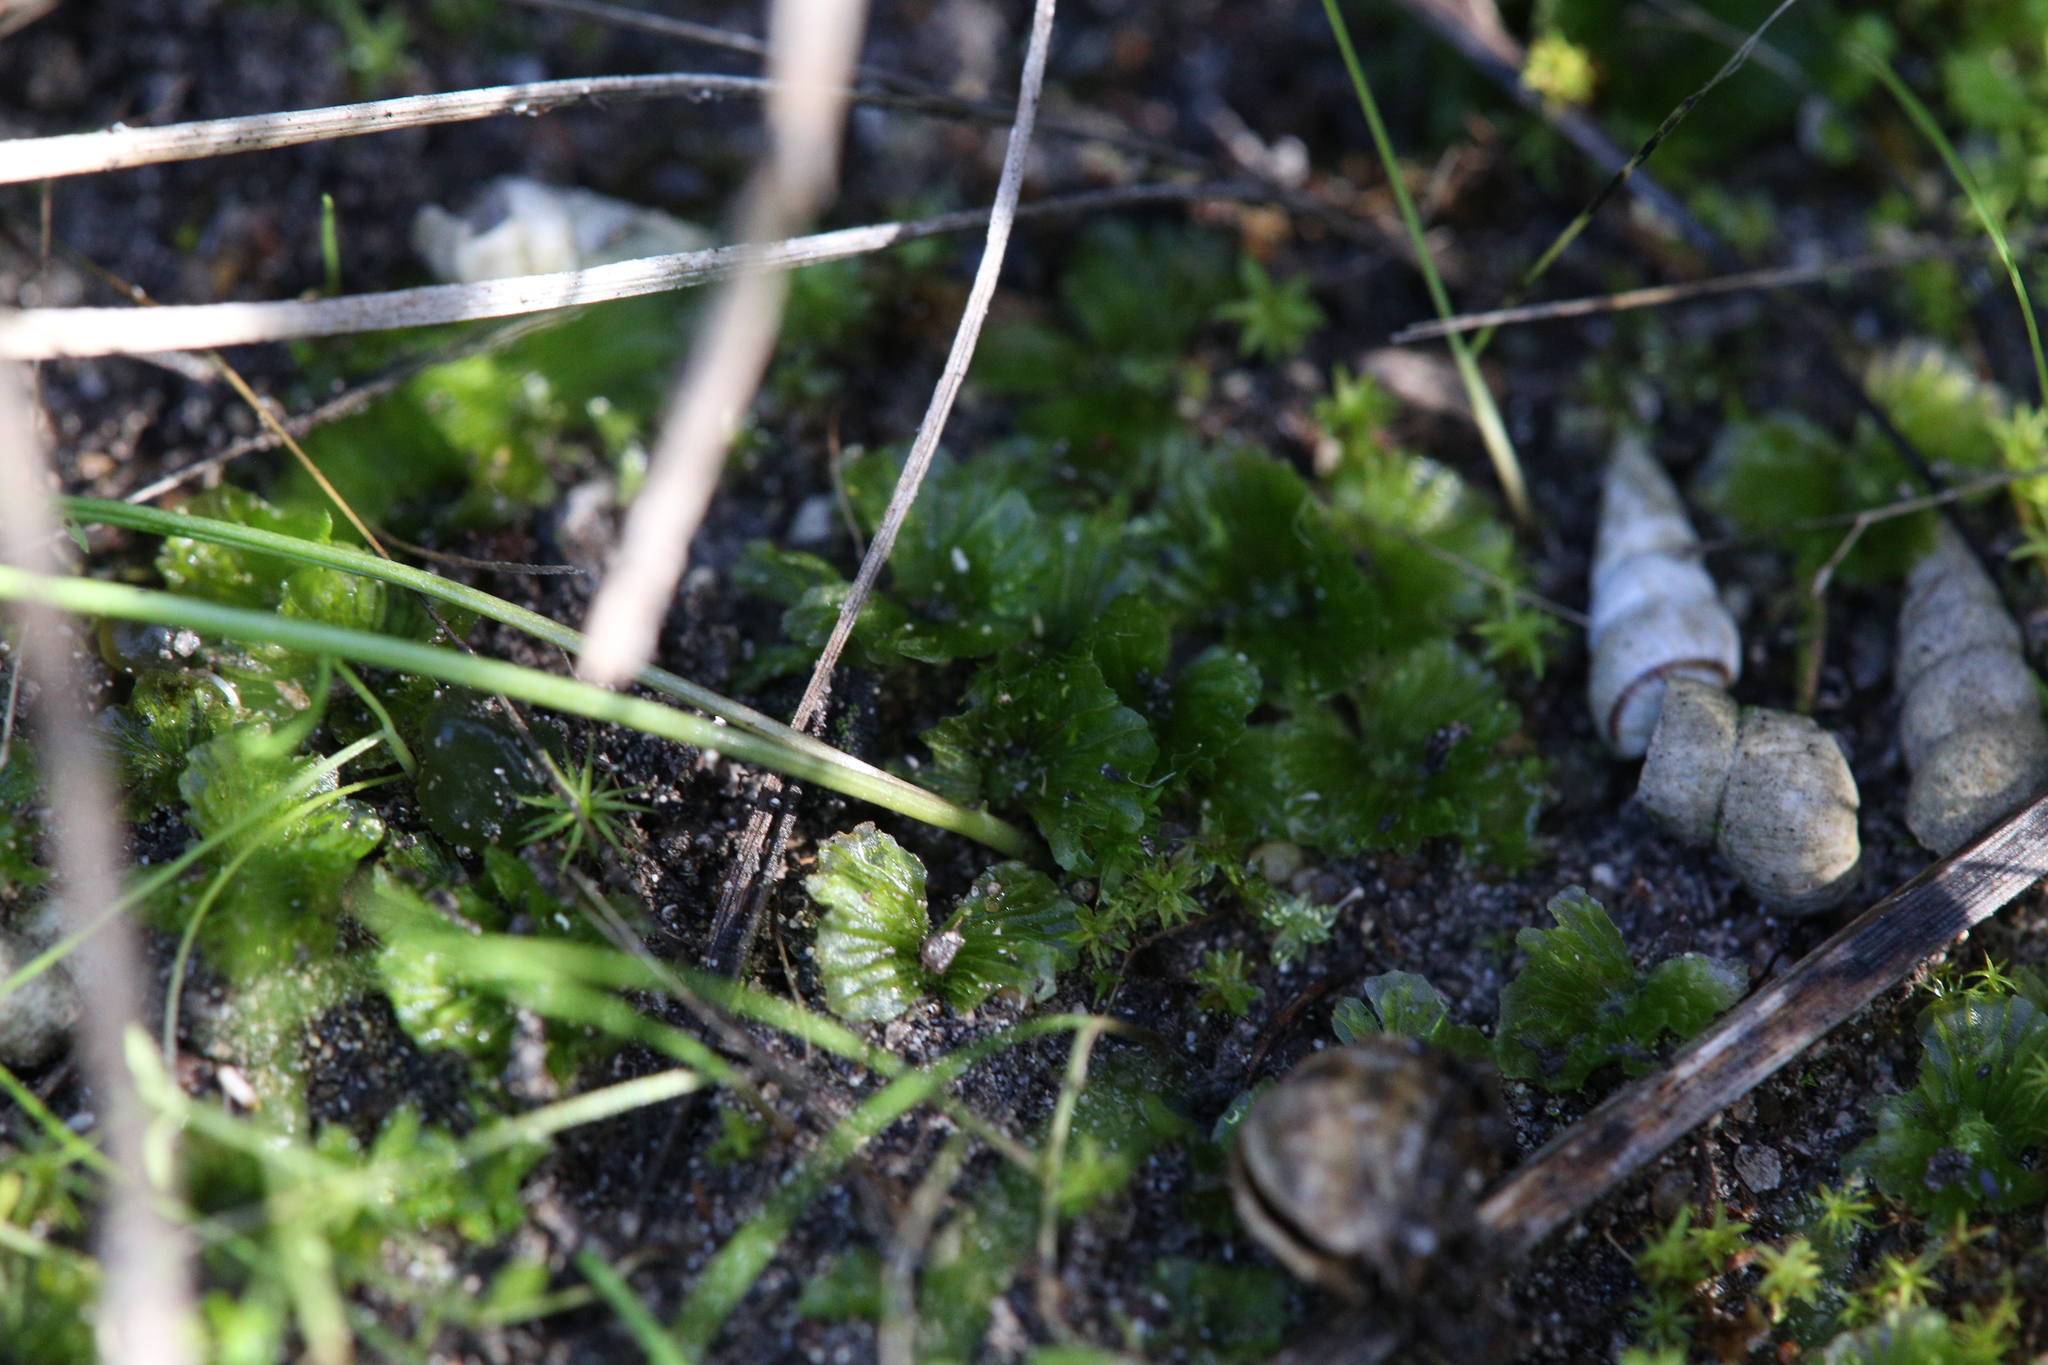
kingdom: Plantae
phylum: Marchantiophyta
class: Jungermanniopsida
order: Fossombroniales
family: Petalophyllaceae
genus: Petalophyllum
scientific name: Petalophyllum preissii
